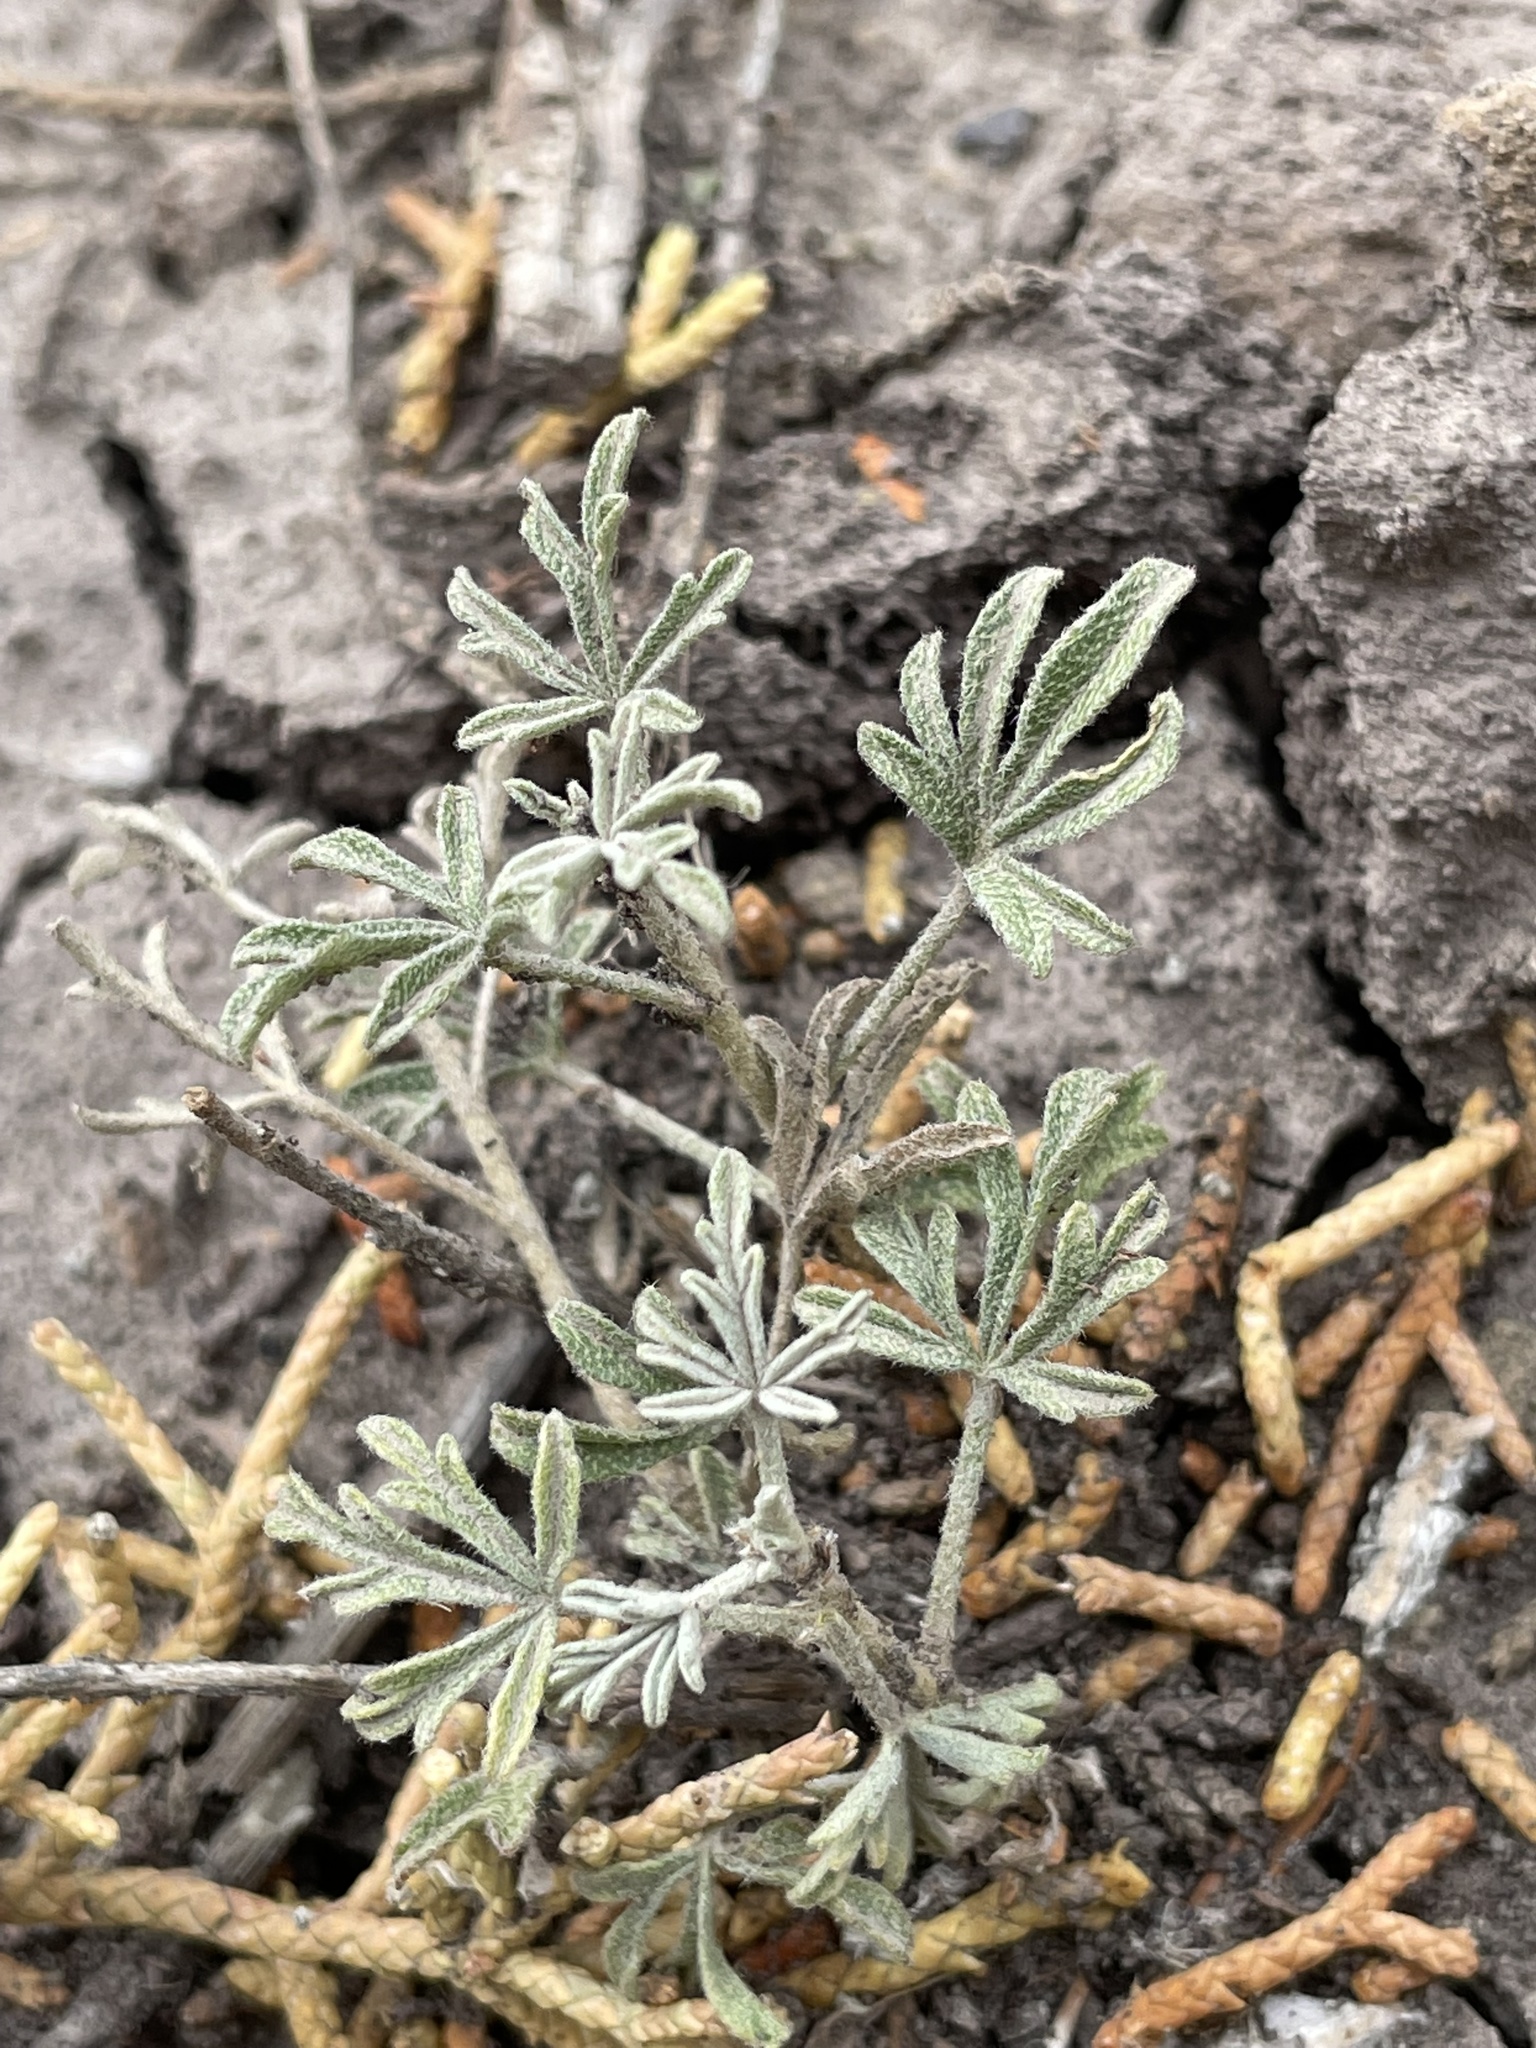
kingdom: Plantae
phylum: Tracheophyta
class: Magnoliopsida
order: Malvales
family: Malvaceae
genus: Sphaeralcea
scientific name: Sphaeralcea coccinea
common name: Moss-rose
